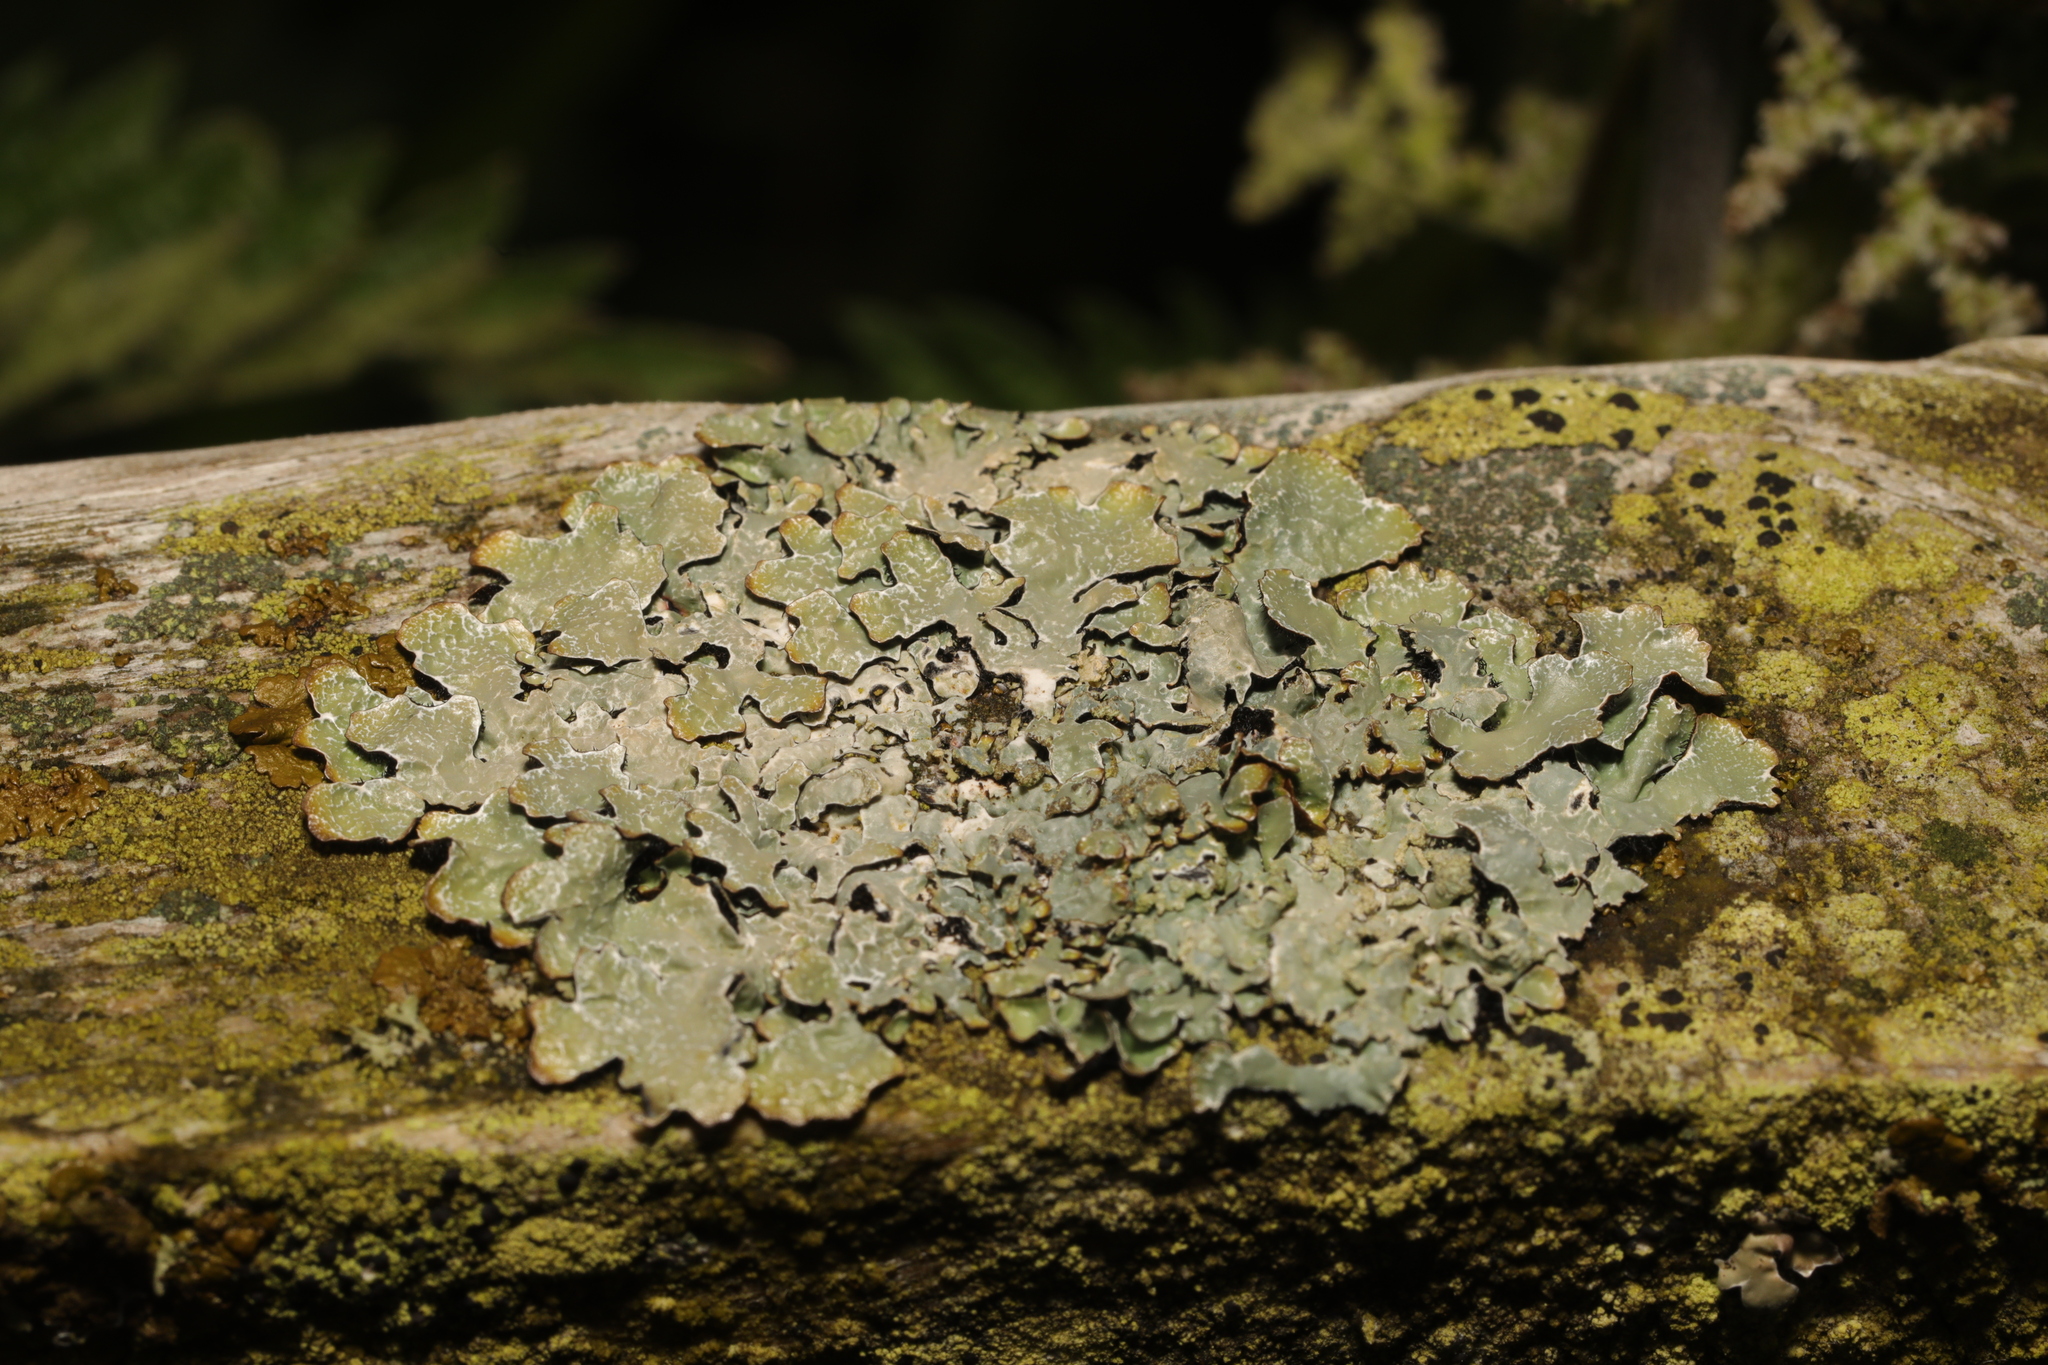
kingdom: Fungi
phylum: Ascomycota
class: Lecanoromycetes
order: Lecanorales
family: Parmeliaceae
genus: Parmelia
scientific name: Parmelia sulcata
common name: Netted shield lichen
